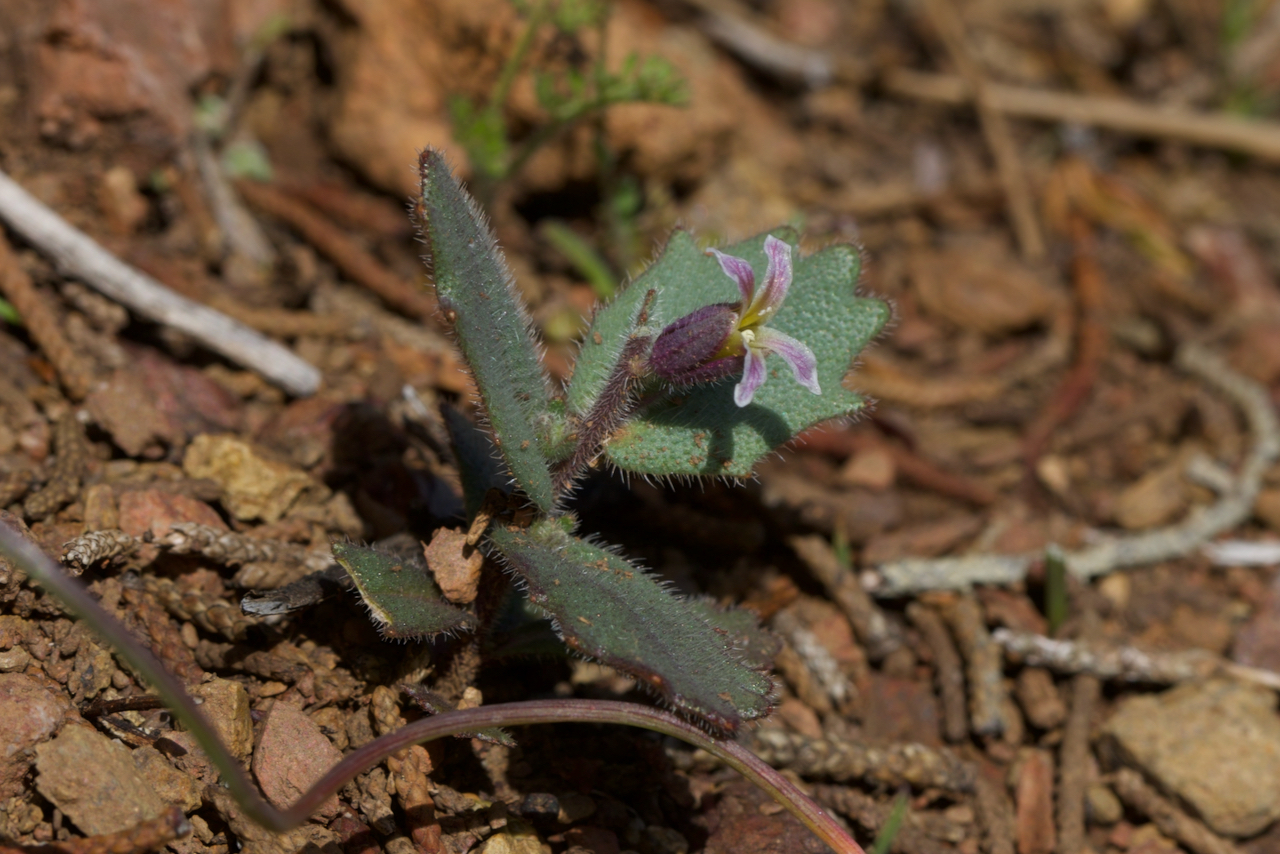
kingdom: Plantae
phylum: Tracheophyta
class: Magnoliopsida
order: Brassicales
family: Brassicaceae
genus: Streptanthus
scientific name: Streptanthus hispidus
